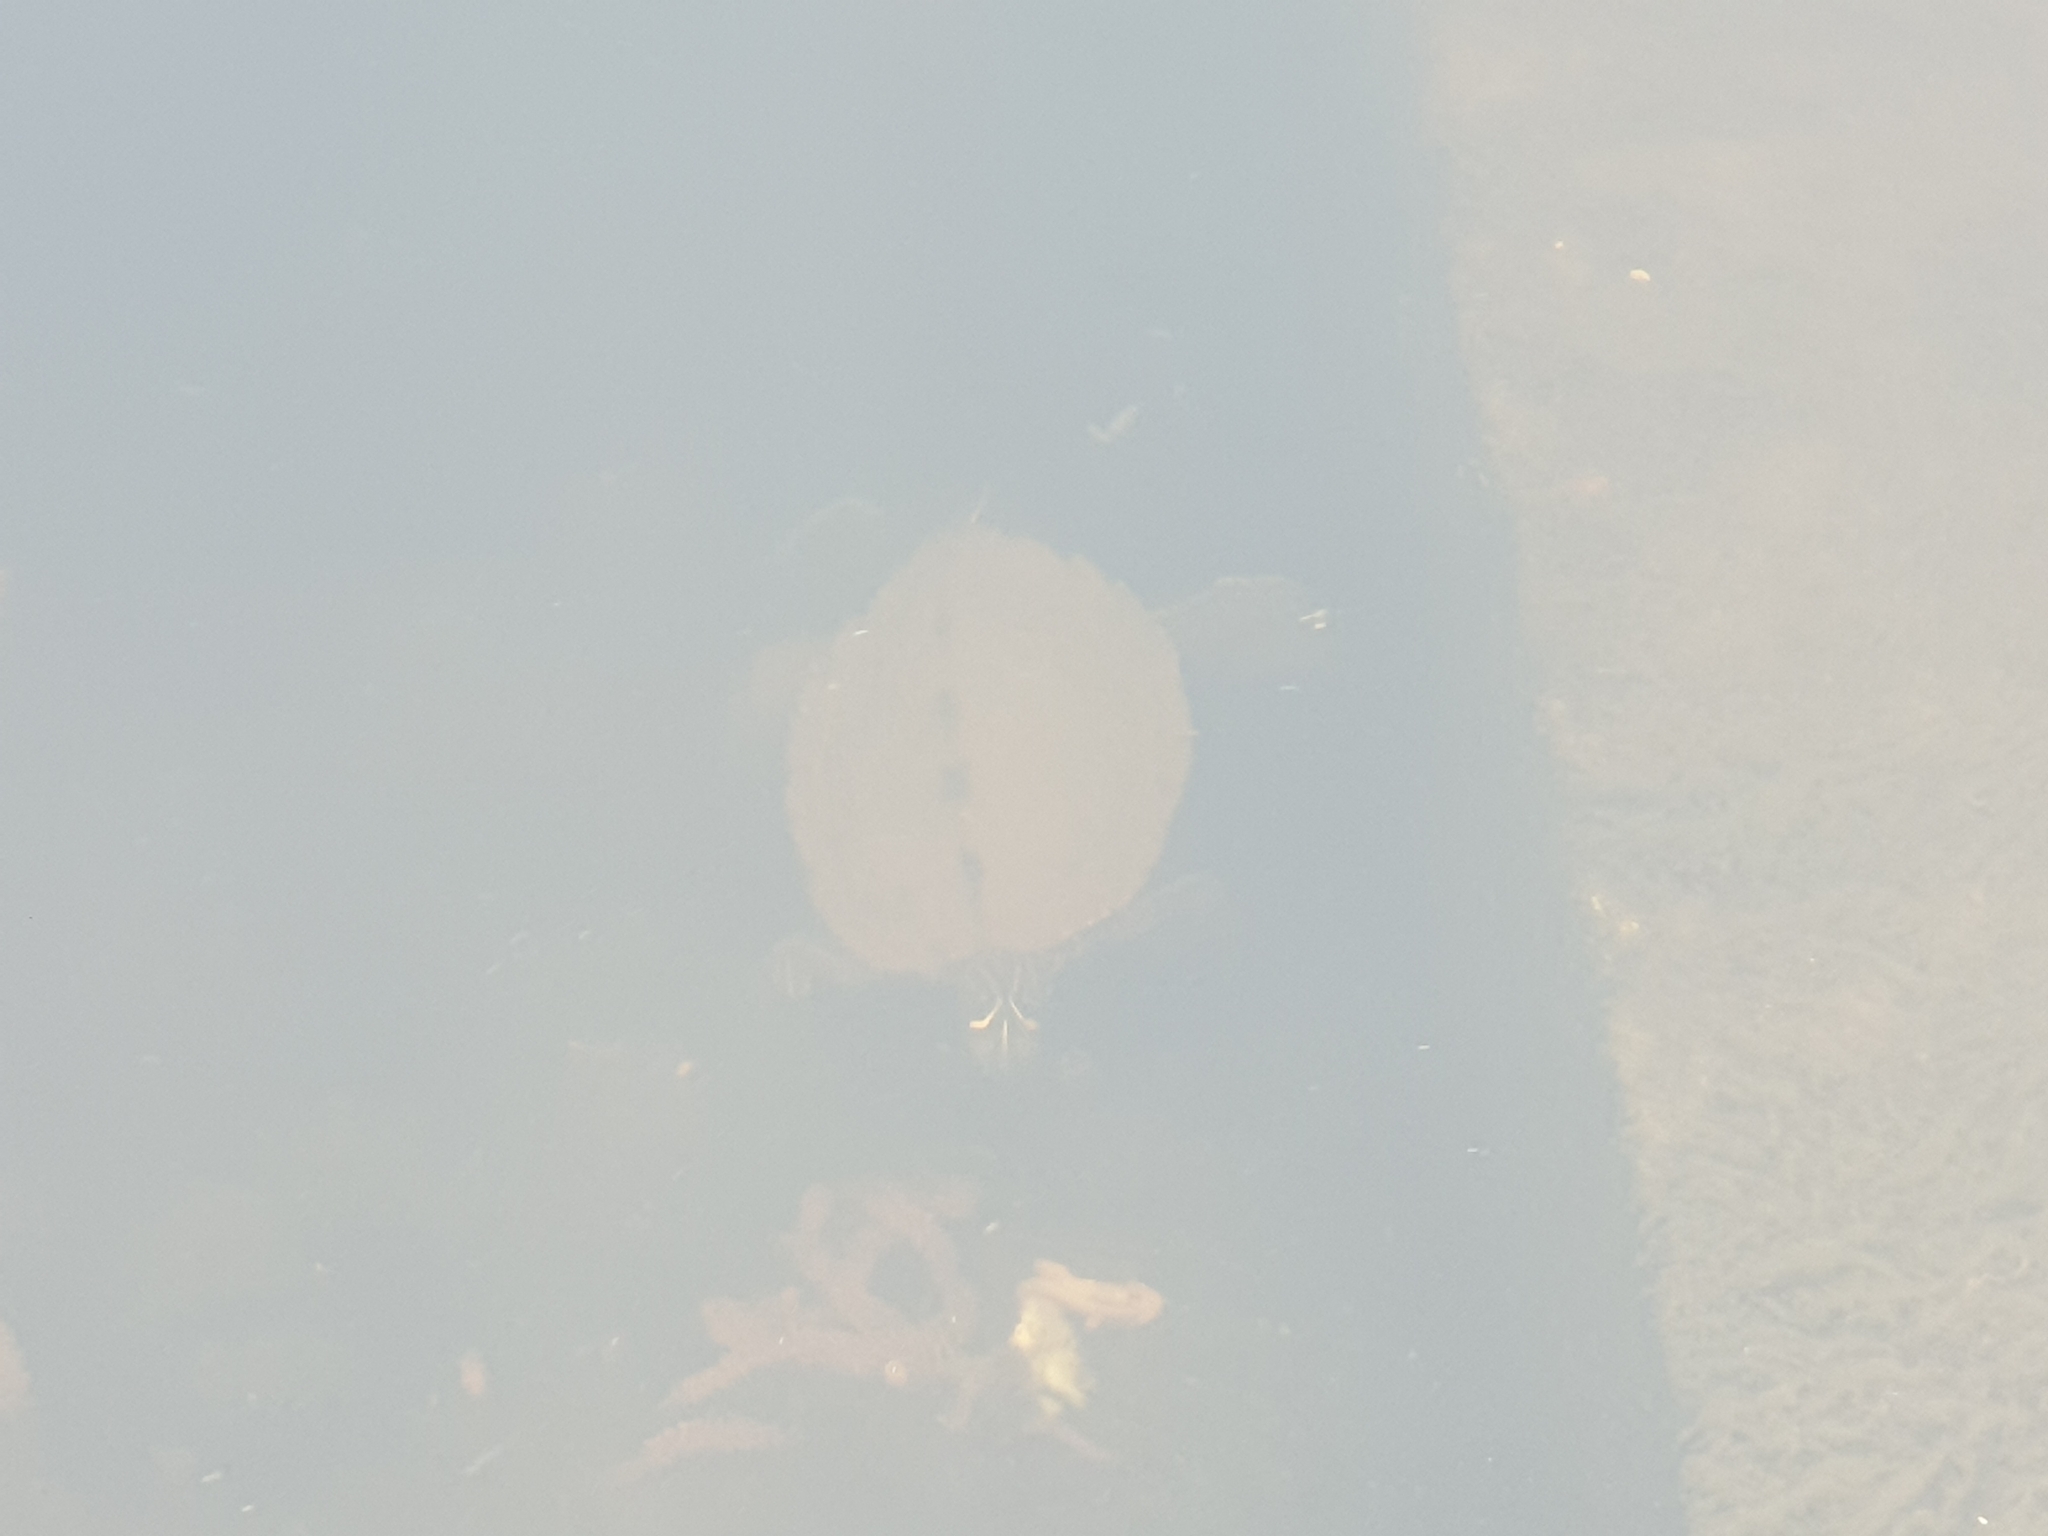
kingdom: Animalia
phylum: Chordata
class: Testudines
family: Emydidae
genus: Graptemys
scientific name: Graptemys pseudogeographica
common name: False map turtle
